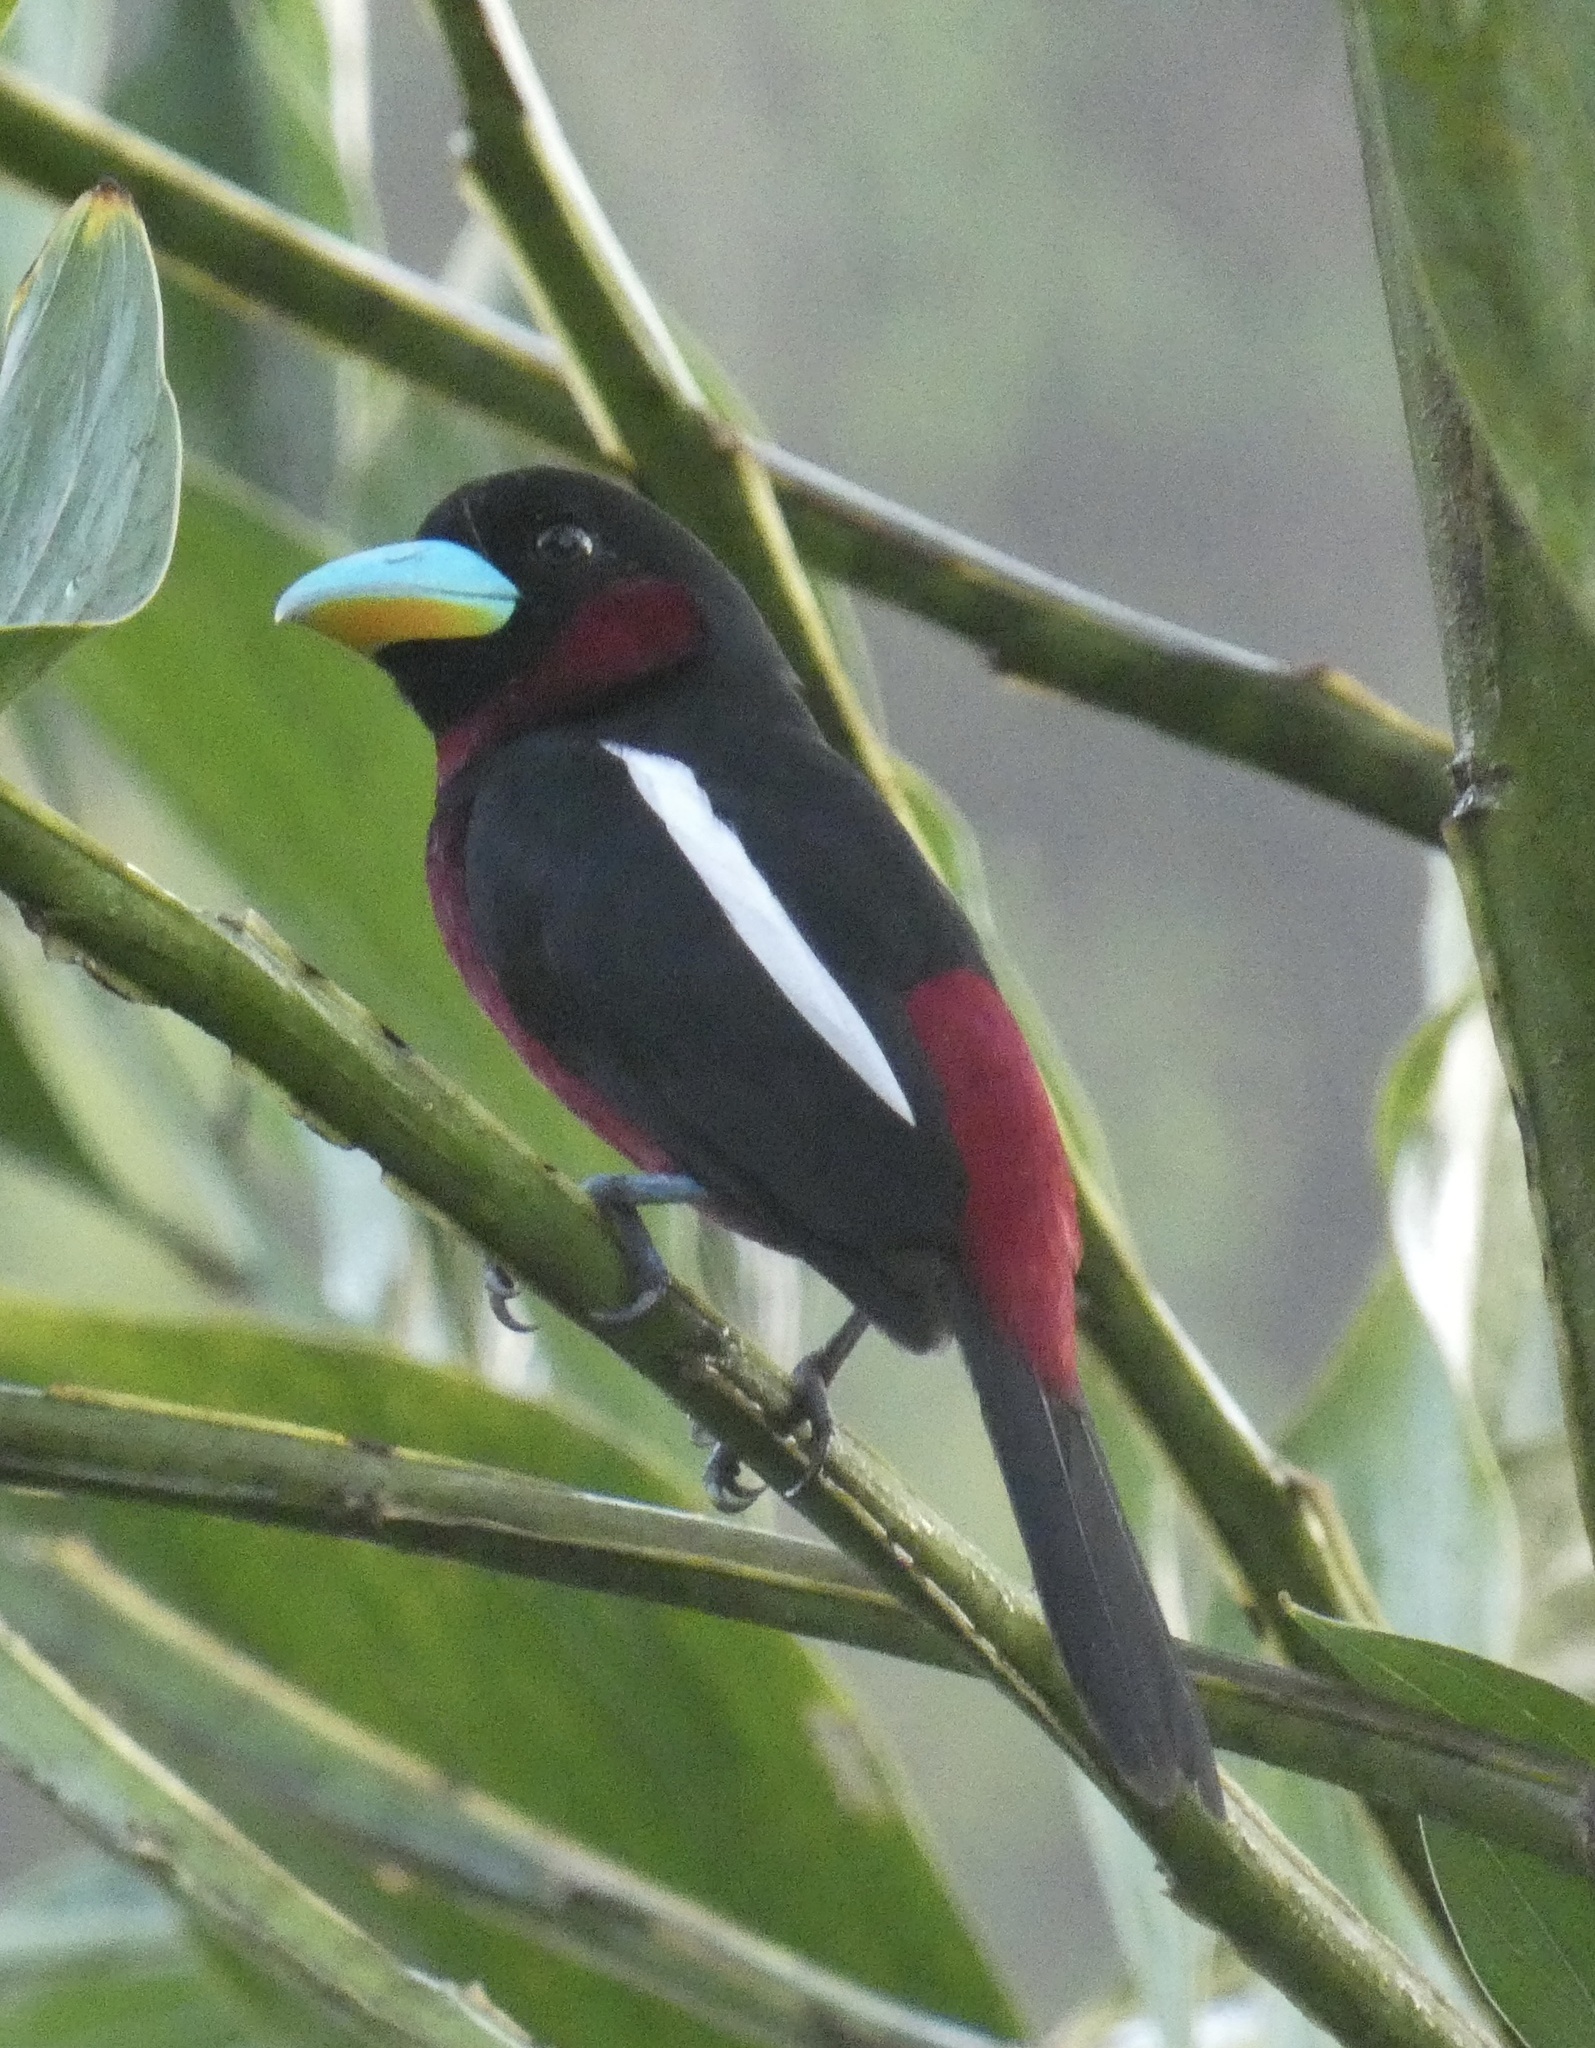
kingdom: Animalia
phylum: Chordata
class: Aves
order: Passeriformes
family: Eurylaimidae
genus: Cymbirhynchus
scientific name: Cymbirhynchus macrorhynchos
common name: Black-and-red broadbill
